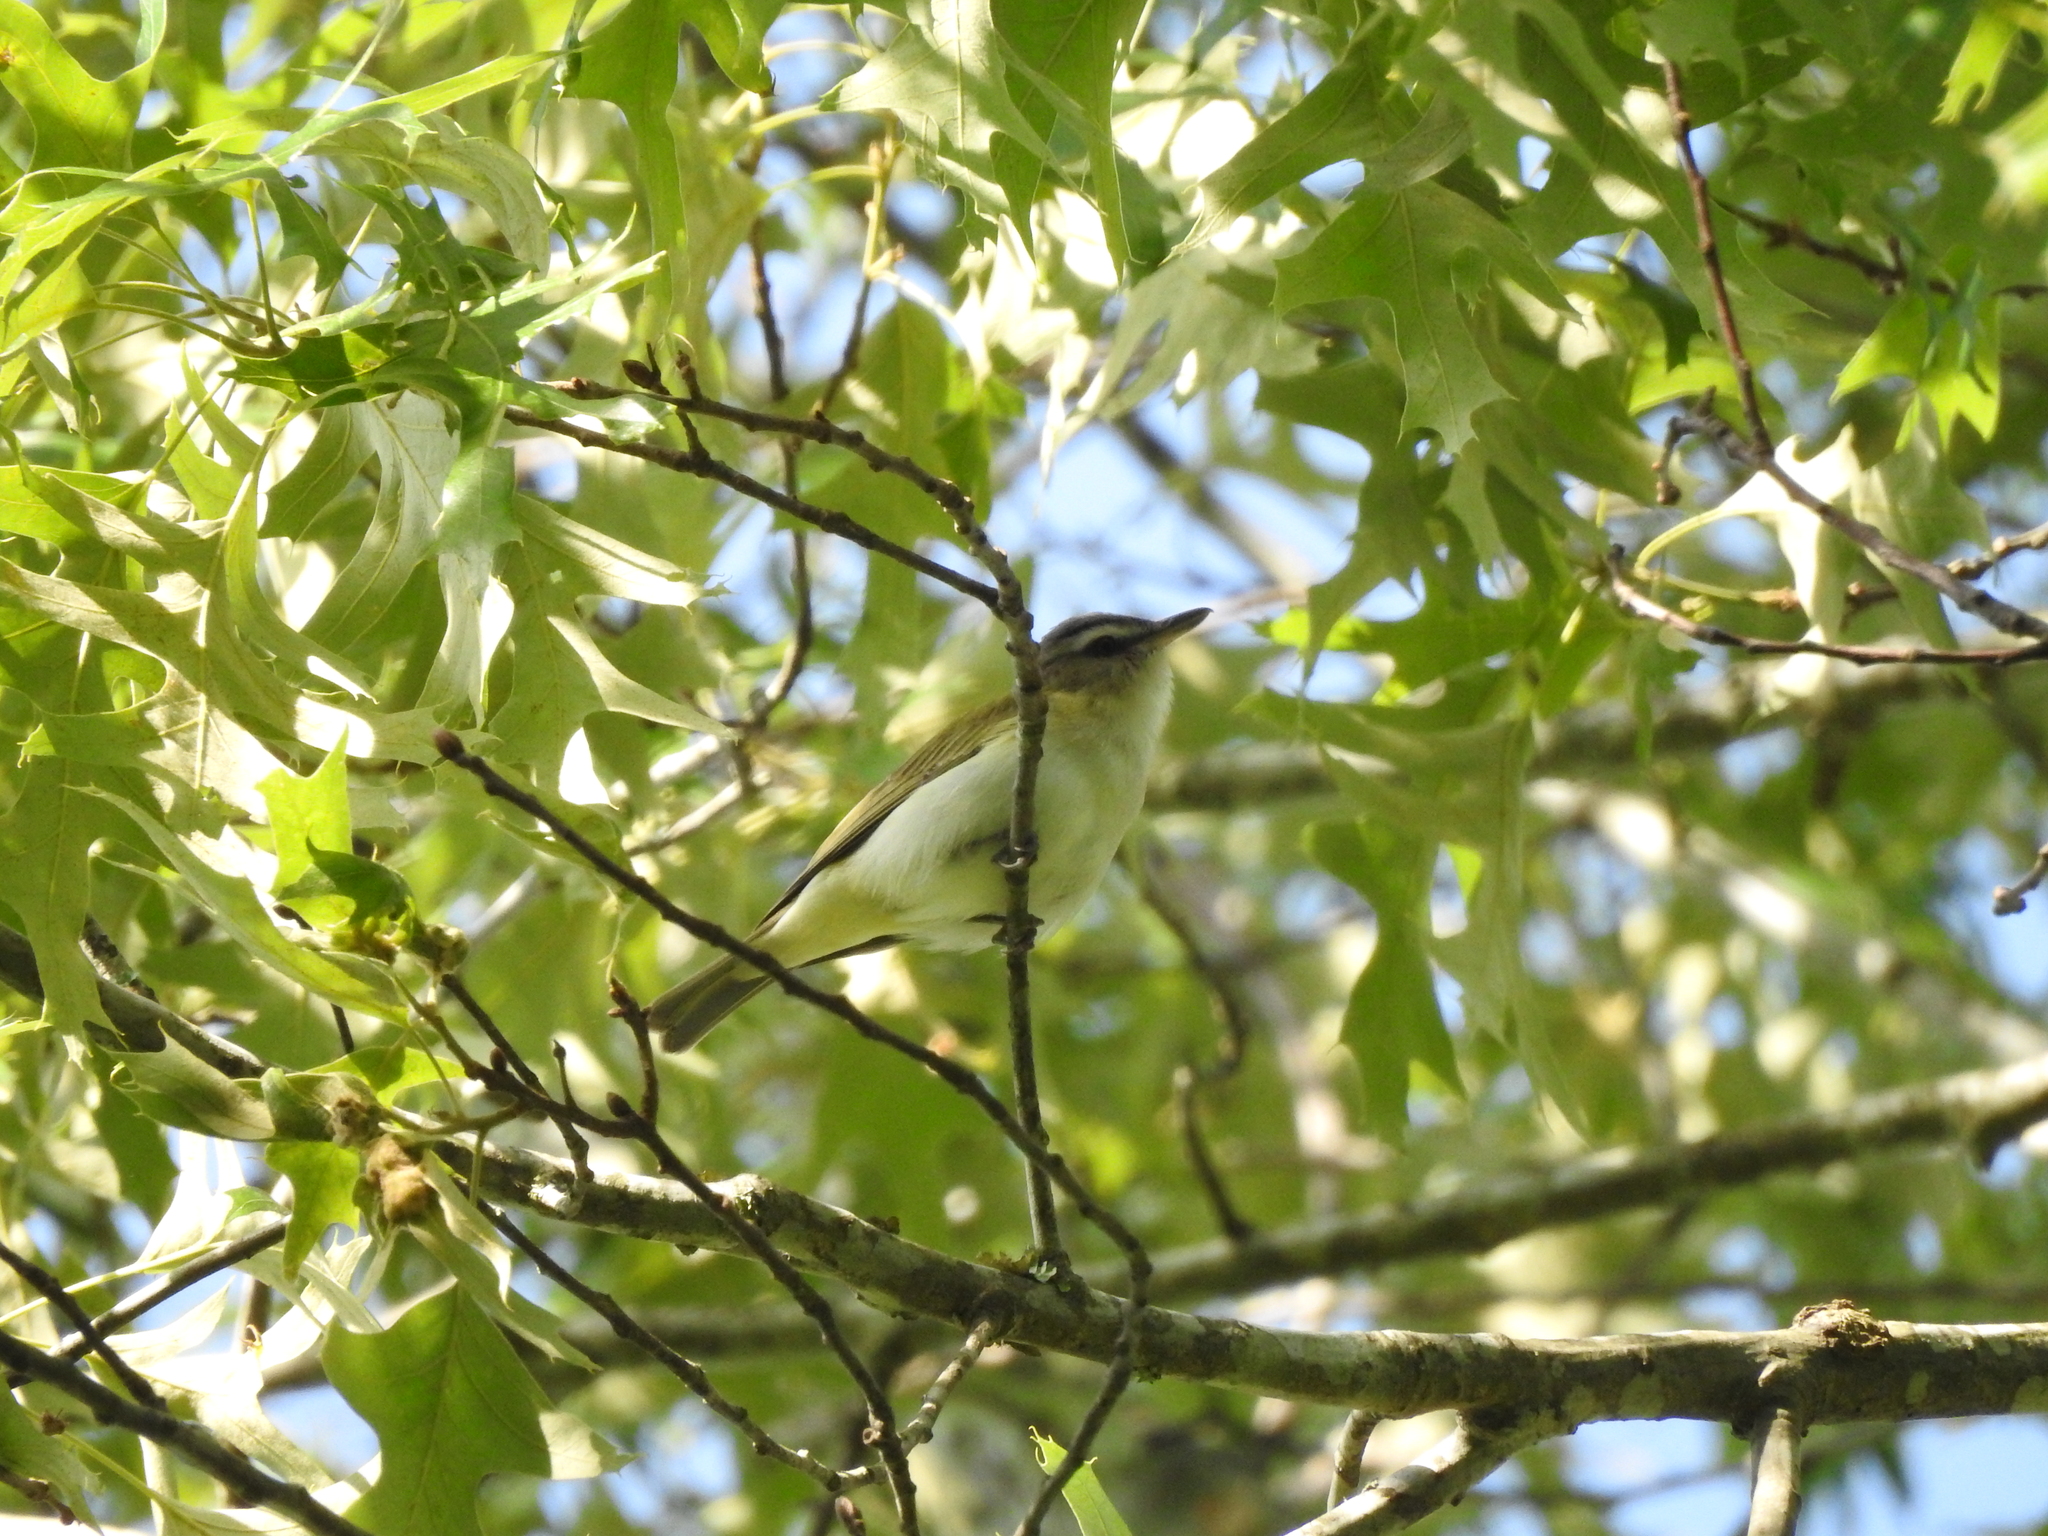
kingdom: Animalia
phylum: Chordata
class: Aves
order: Passeriformes
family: Vireonidae
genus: Vireo
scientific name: Vireo olivaceus
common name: Red-eyed vireo
